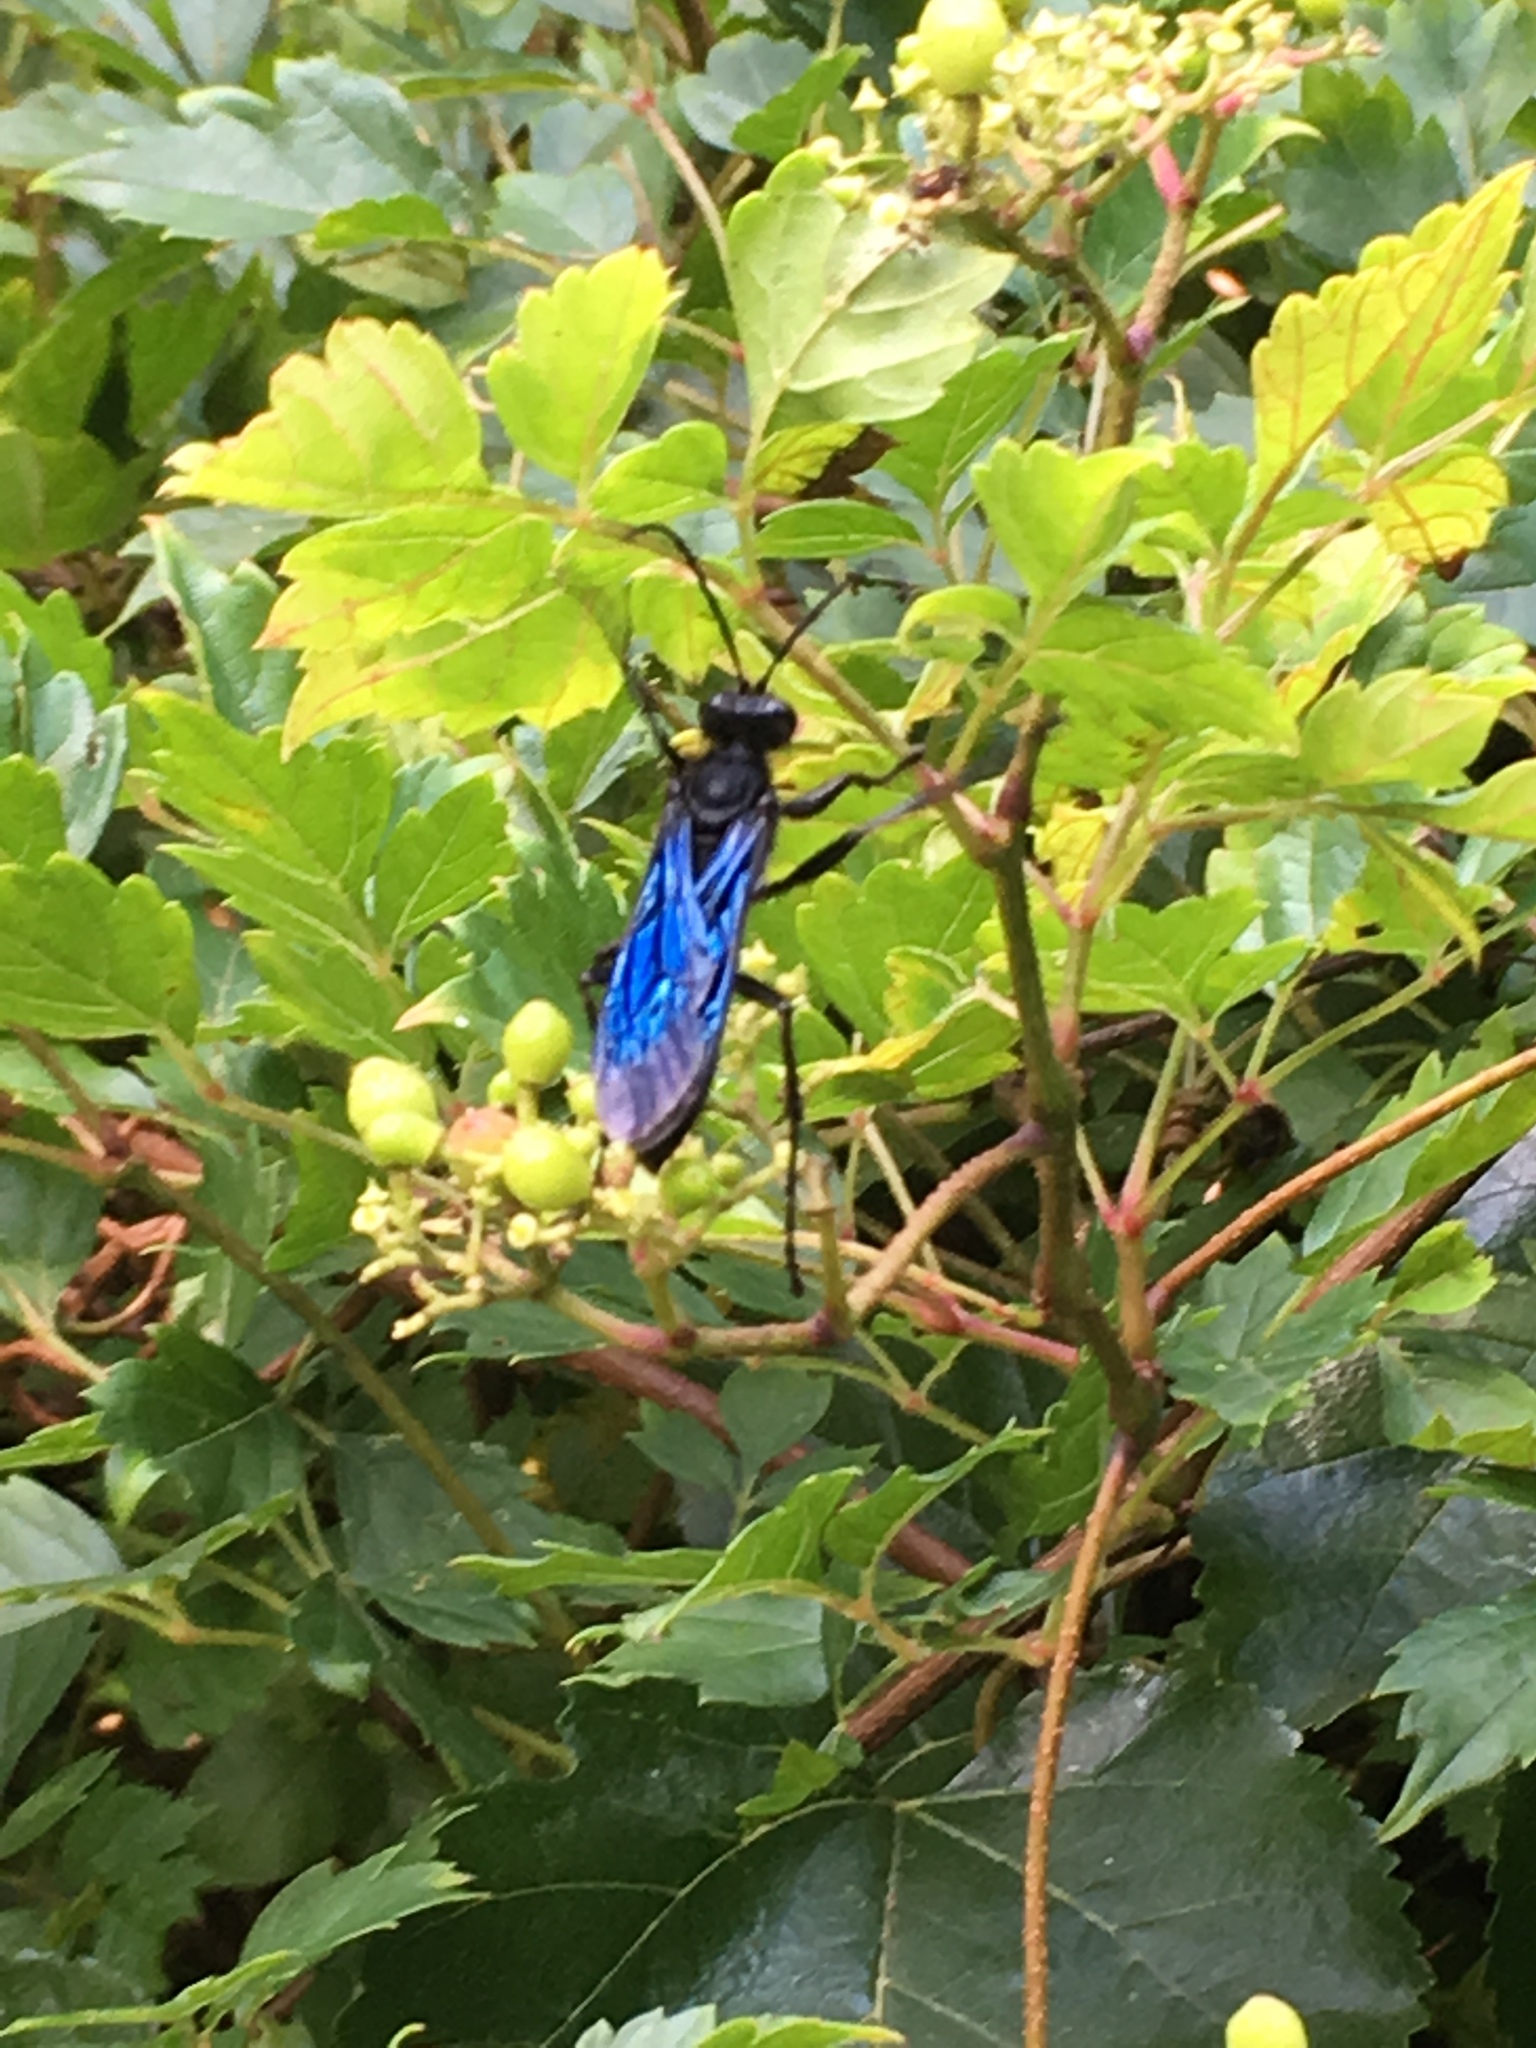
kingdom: Animalia
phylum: Arthropoda
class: Insecta
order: Hymenoptera
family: Sphecidae
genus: Sphex
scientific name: Sphex pensylvanicus
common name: Great black digger wasp
